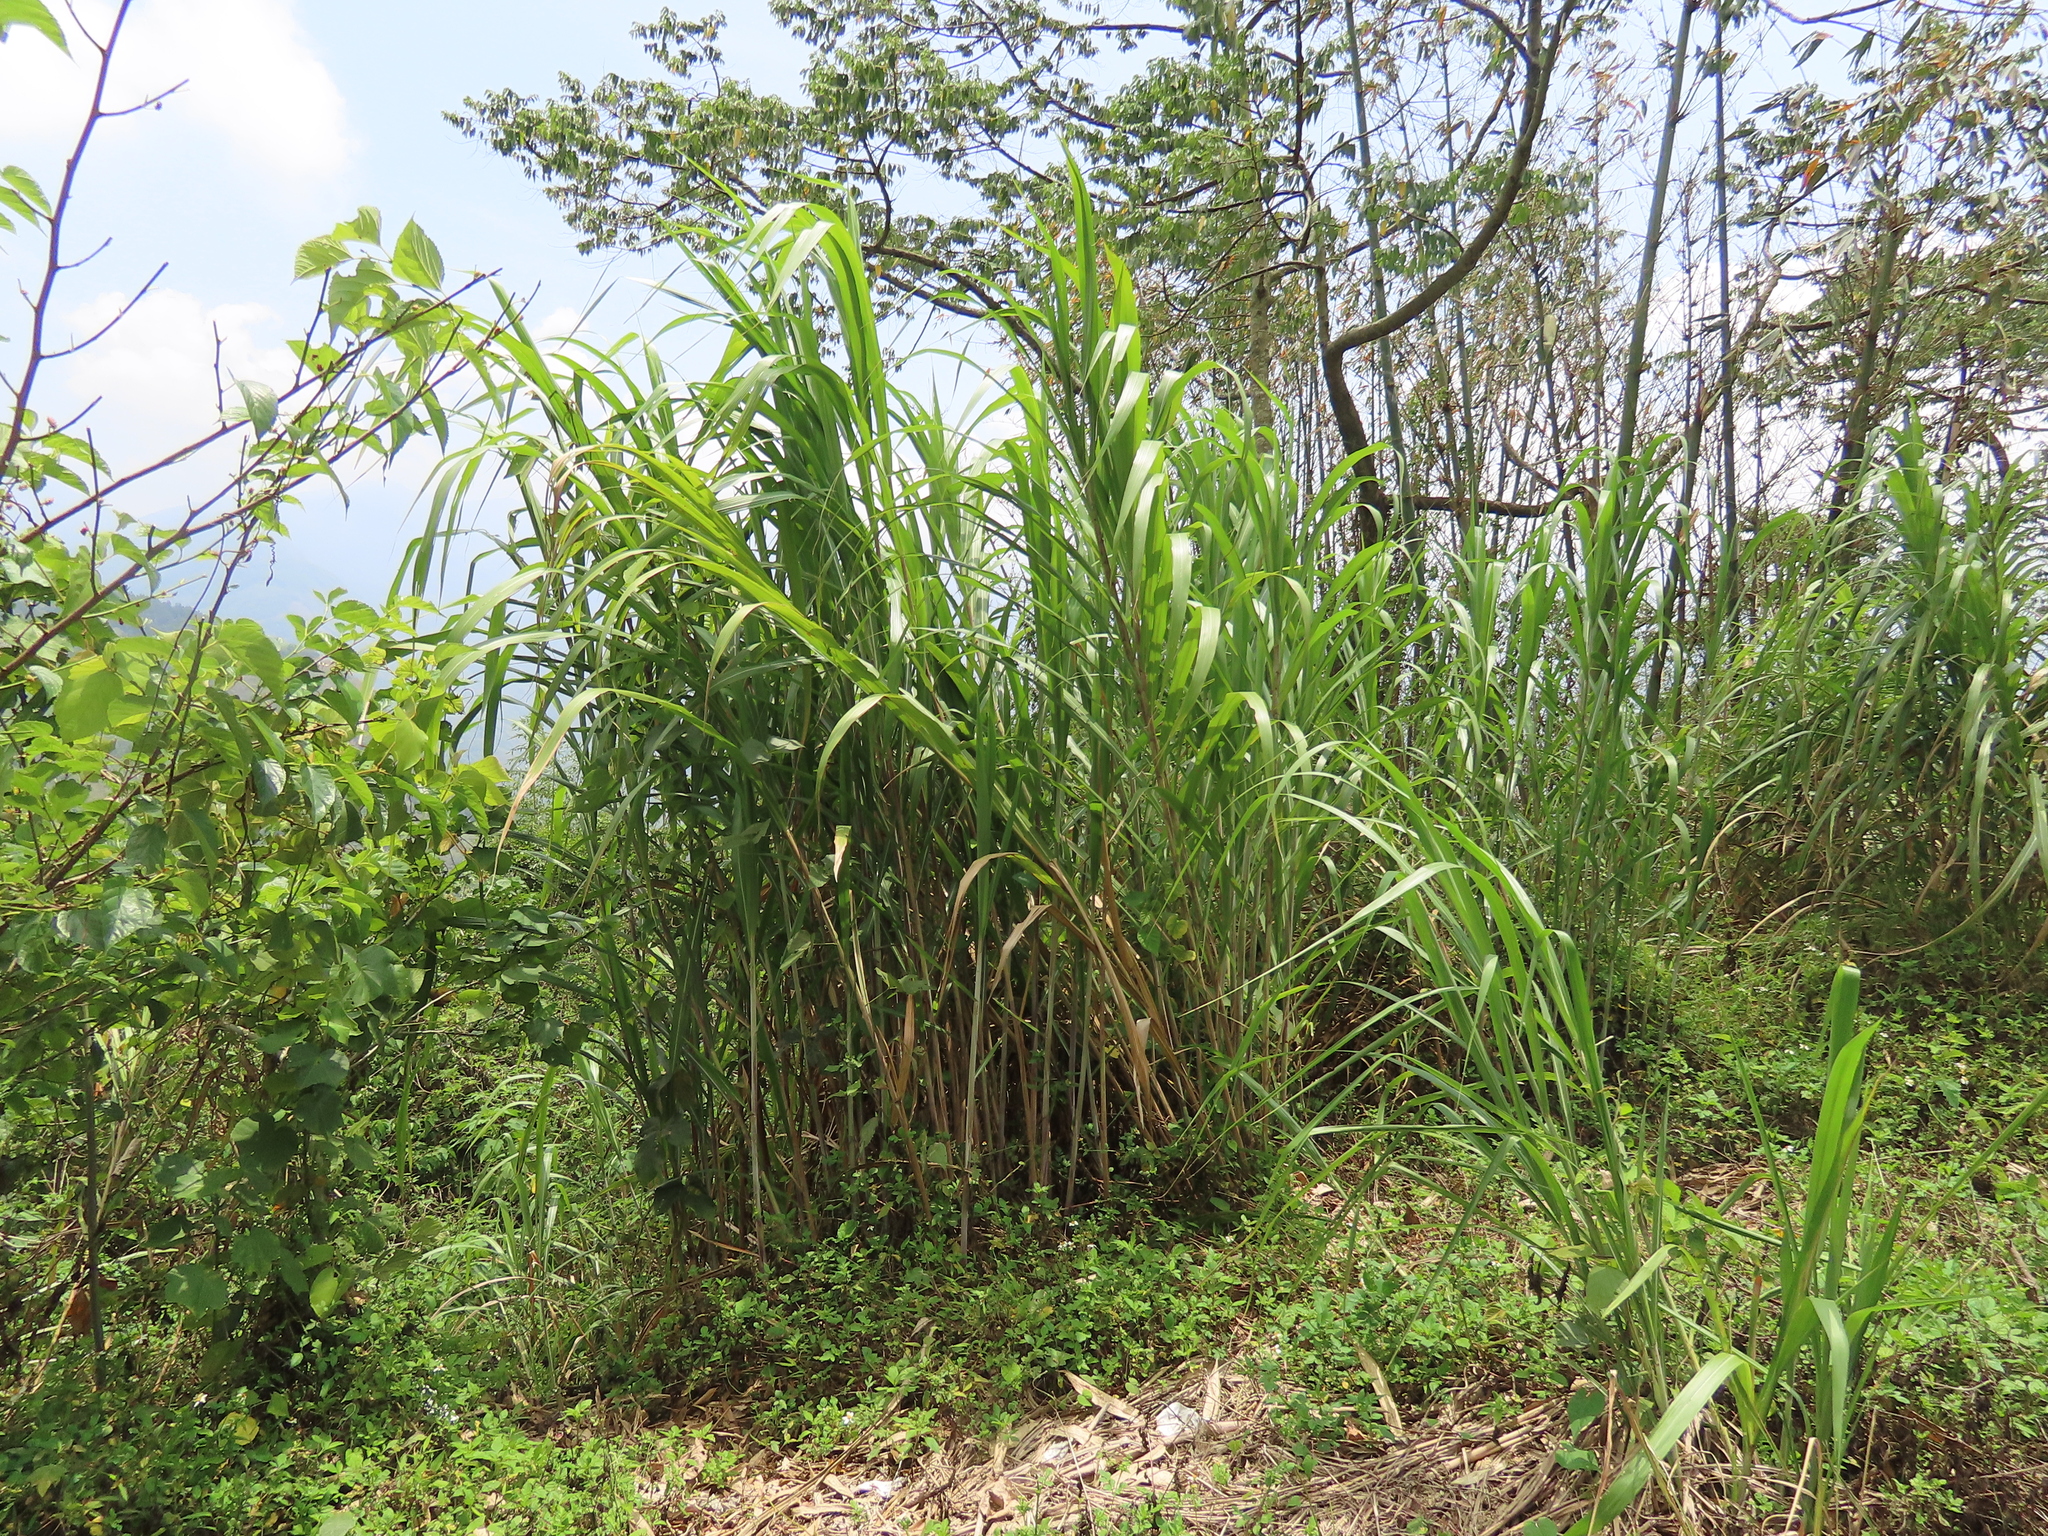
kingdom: Plantae
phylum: Tracheophyta
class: Liliopsida
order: Poales
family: Poaceae
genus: Cenchrus
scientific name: Cenchrus purpureus
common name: Elephant grass
